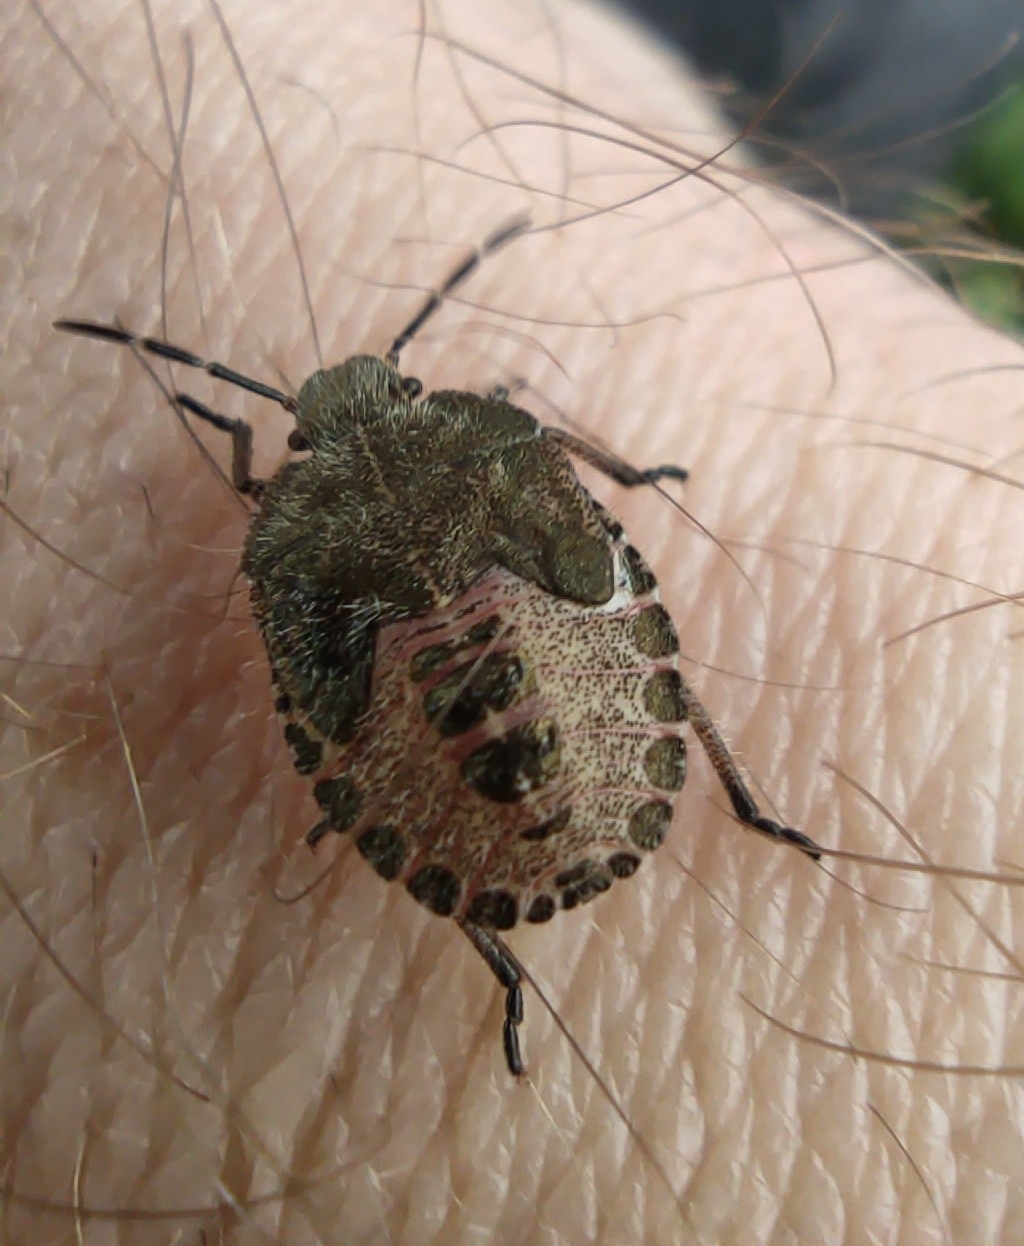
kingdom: Animalia
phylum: Arthropoda
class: Insecta
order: Hemiptera
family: Pentatomidae
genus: Dolycoris
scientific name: Dolycoris baccarum
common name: Sloe bug
